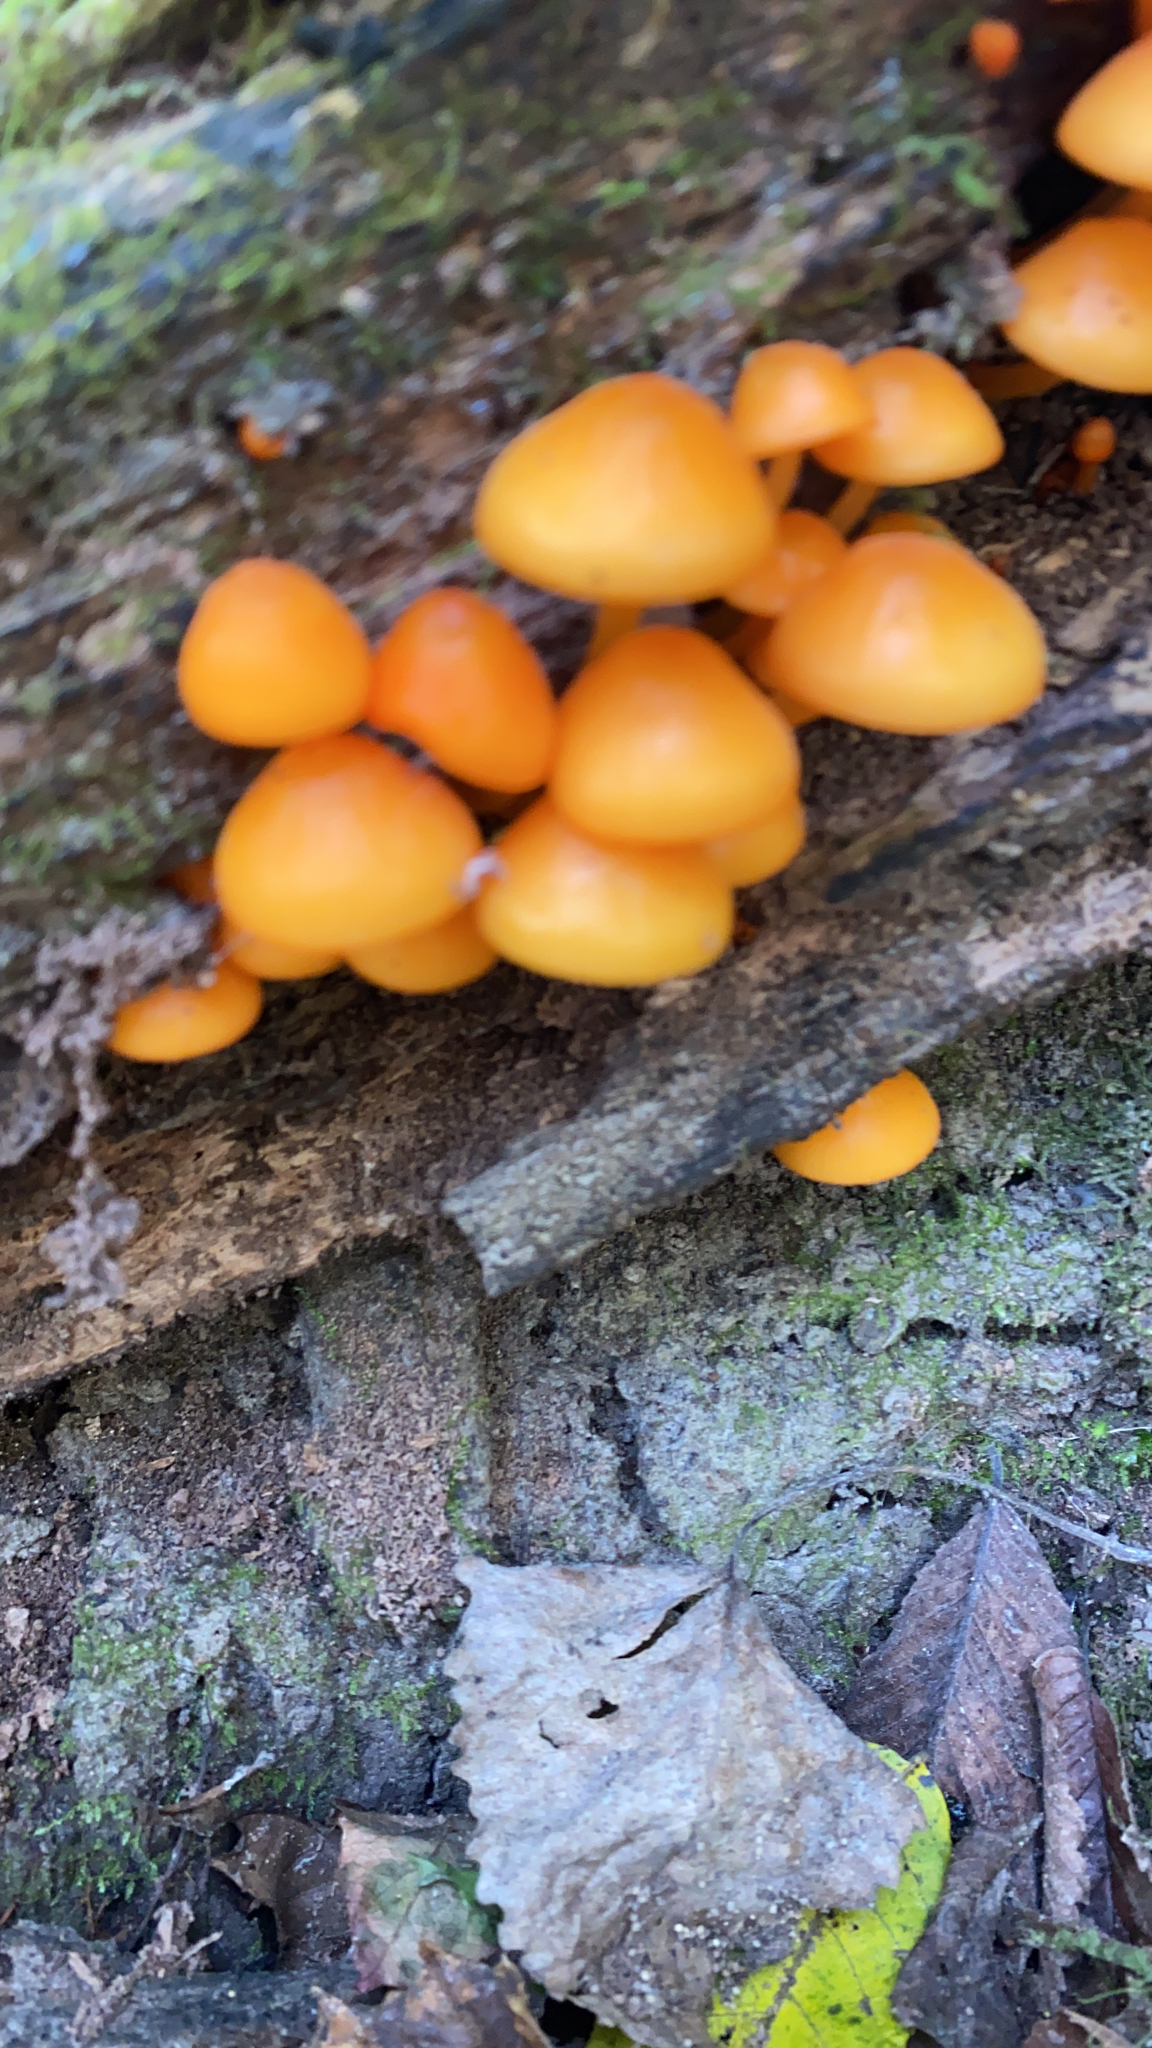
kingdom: Fungi
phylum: Basidiomycota
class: Agaricomycetes
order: Agaricales
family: Mycenaceae
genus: Mycena
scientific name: Mycena leaiana
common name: Orange mycena
